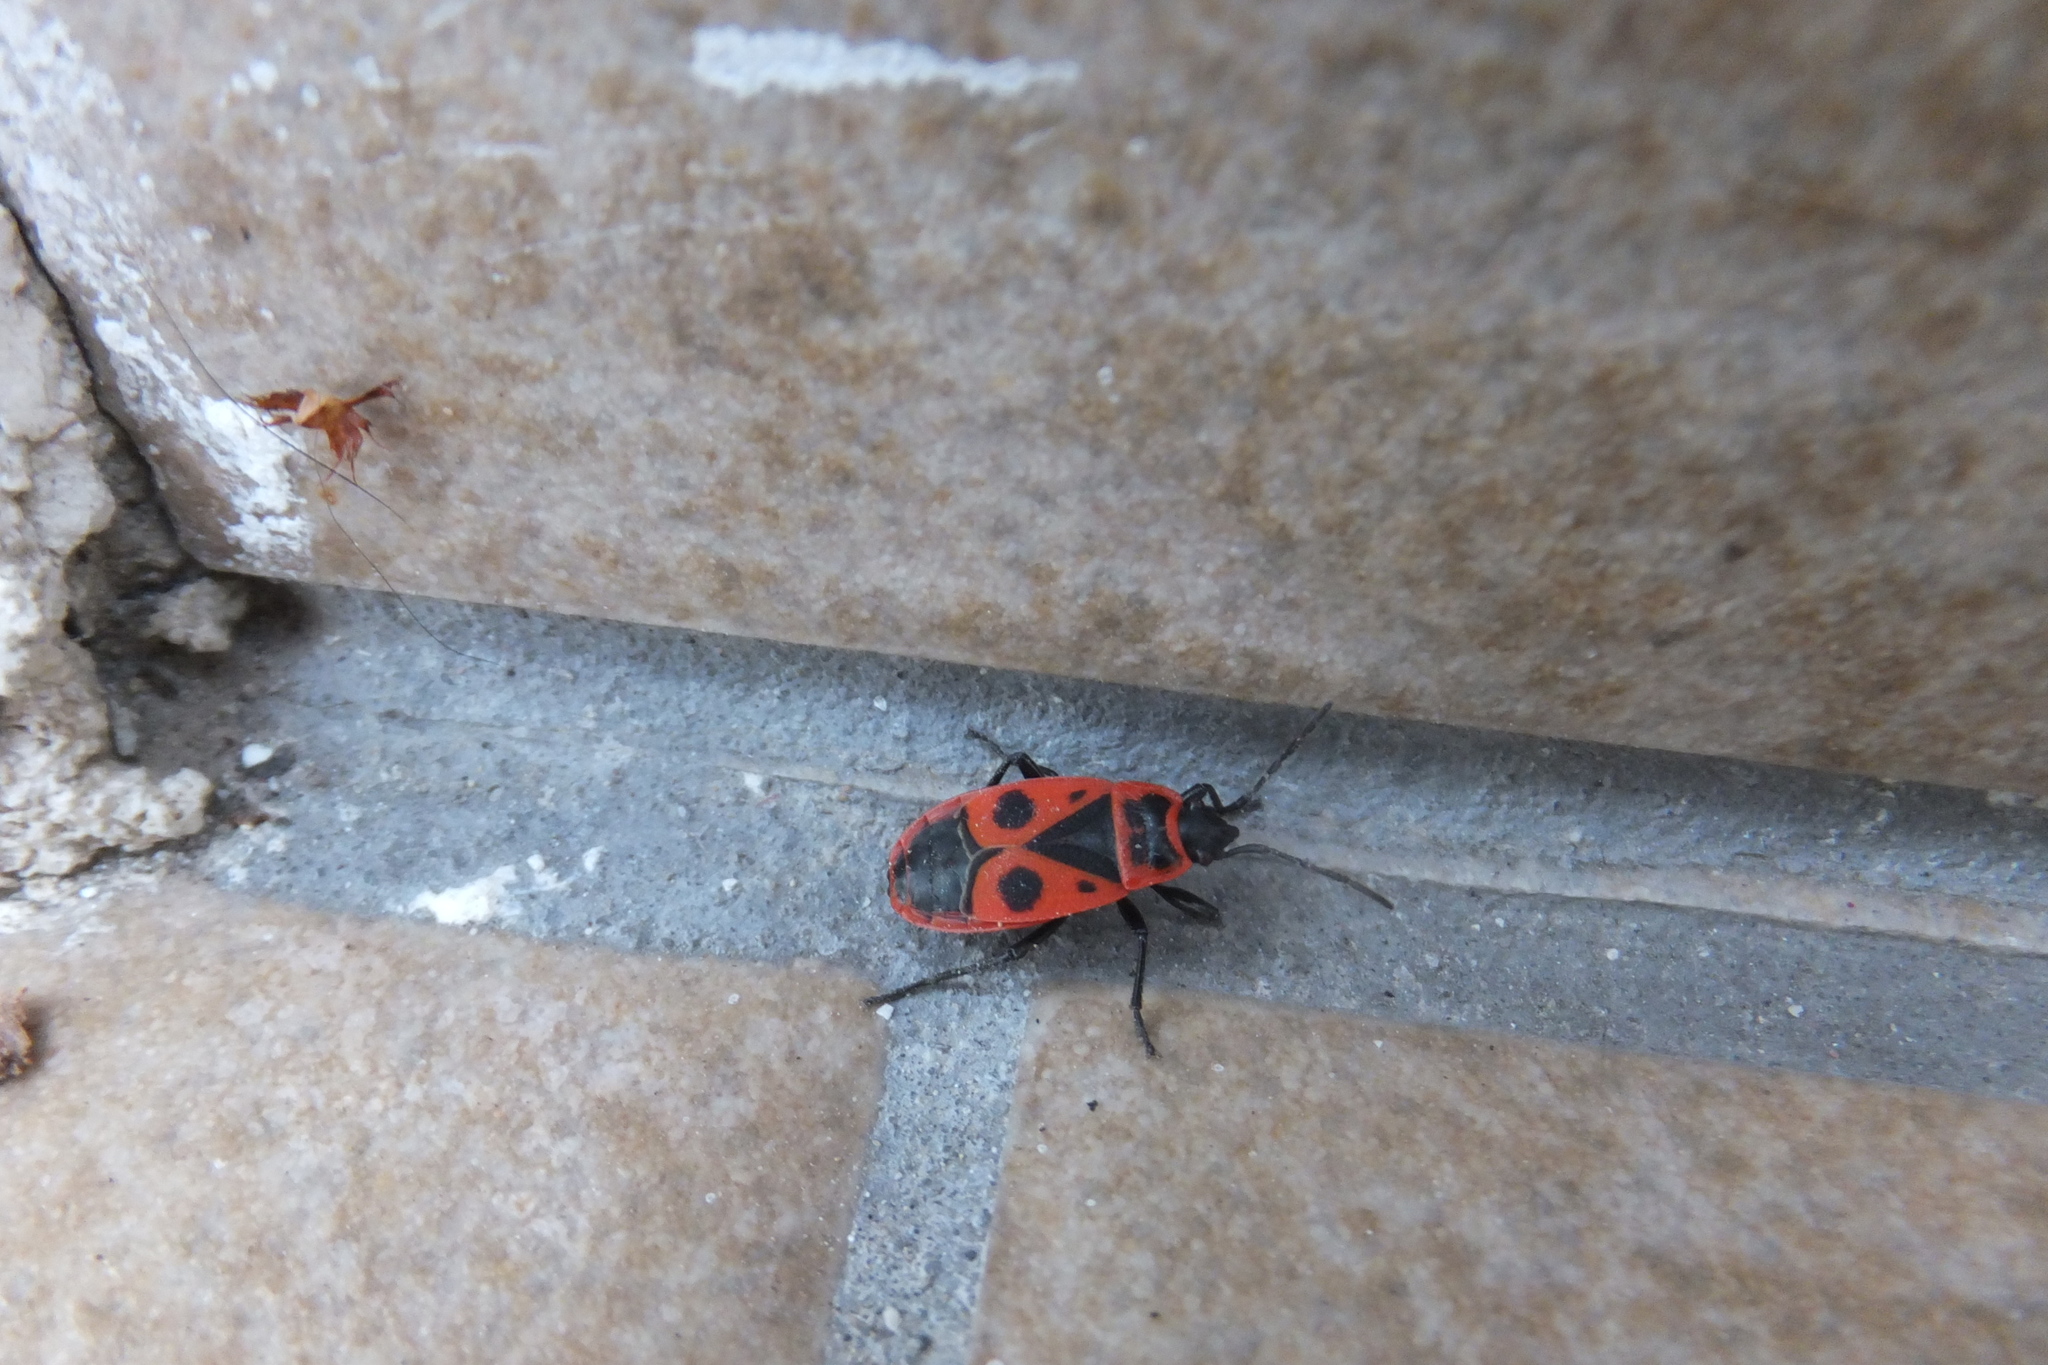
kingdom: Animalia
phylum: Arthropoda
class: Insecta
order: Hemiptera
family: Pyrrhocoridae
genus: Pyrrhocoris
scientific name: Pyrrhocoris apterus
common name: Firebug
